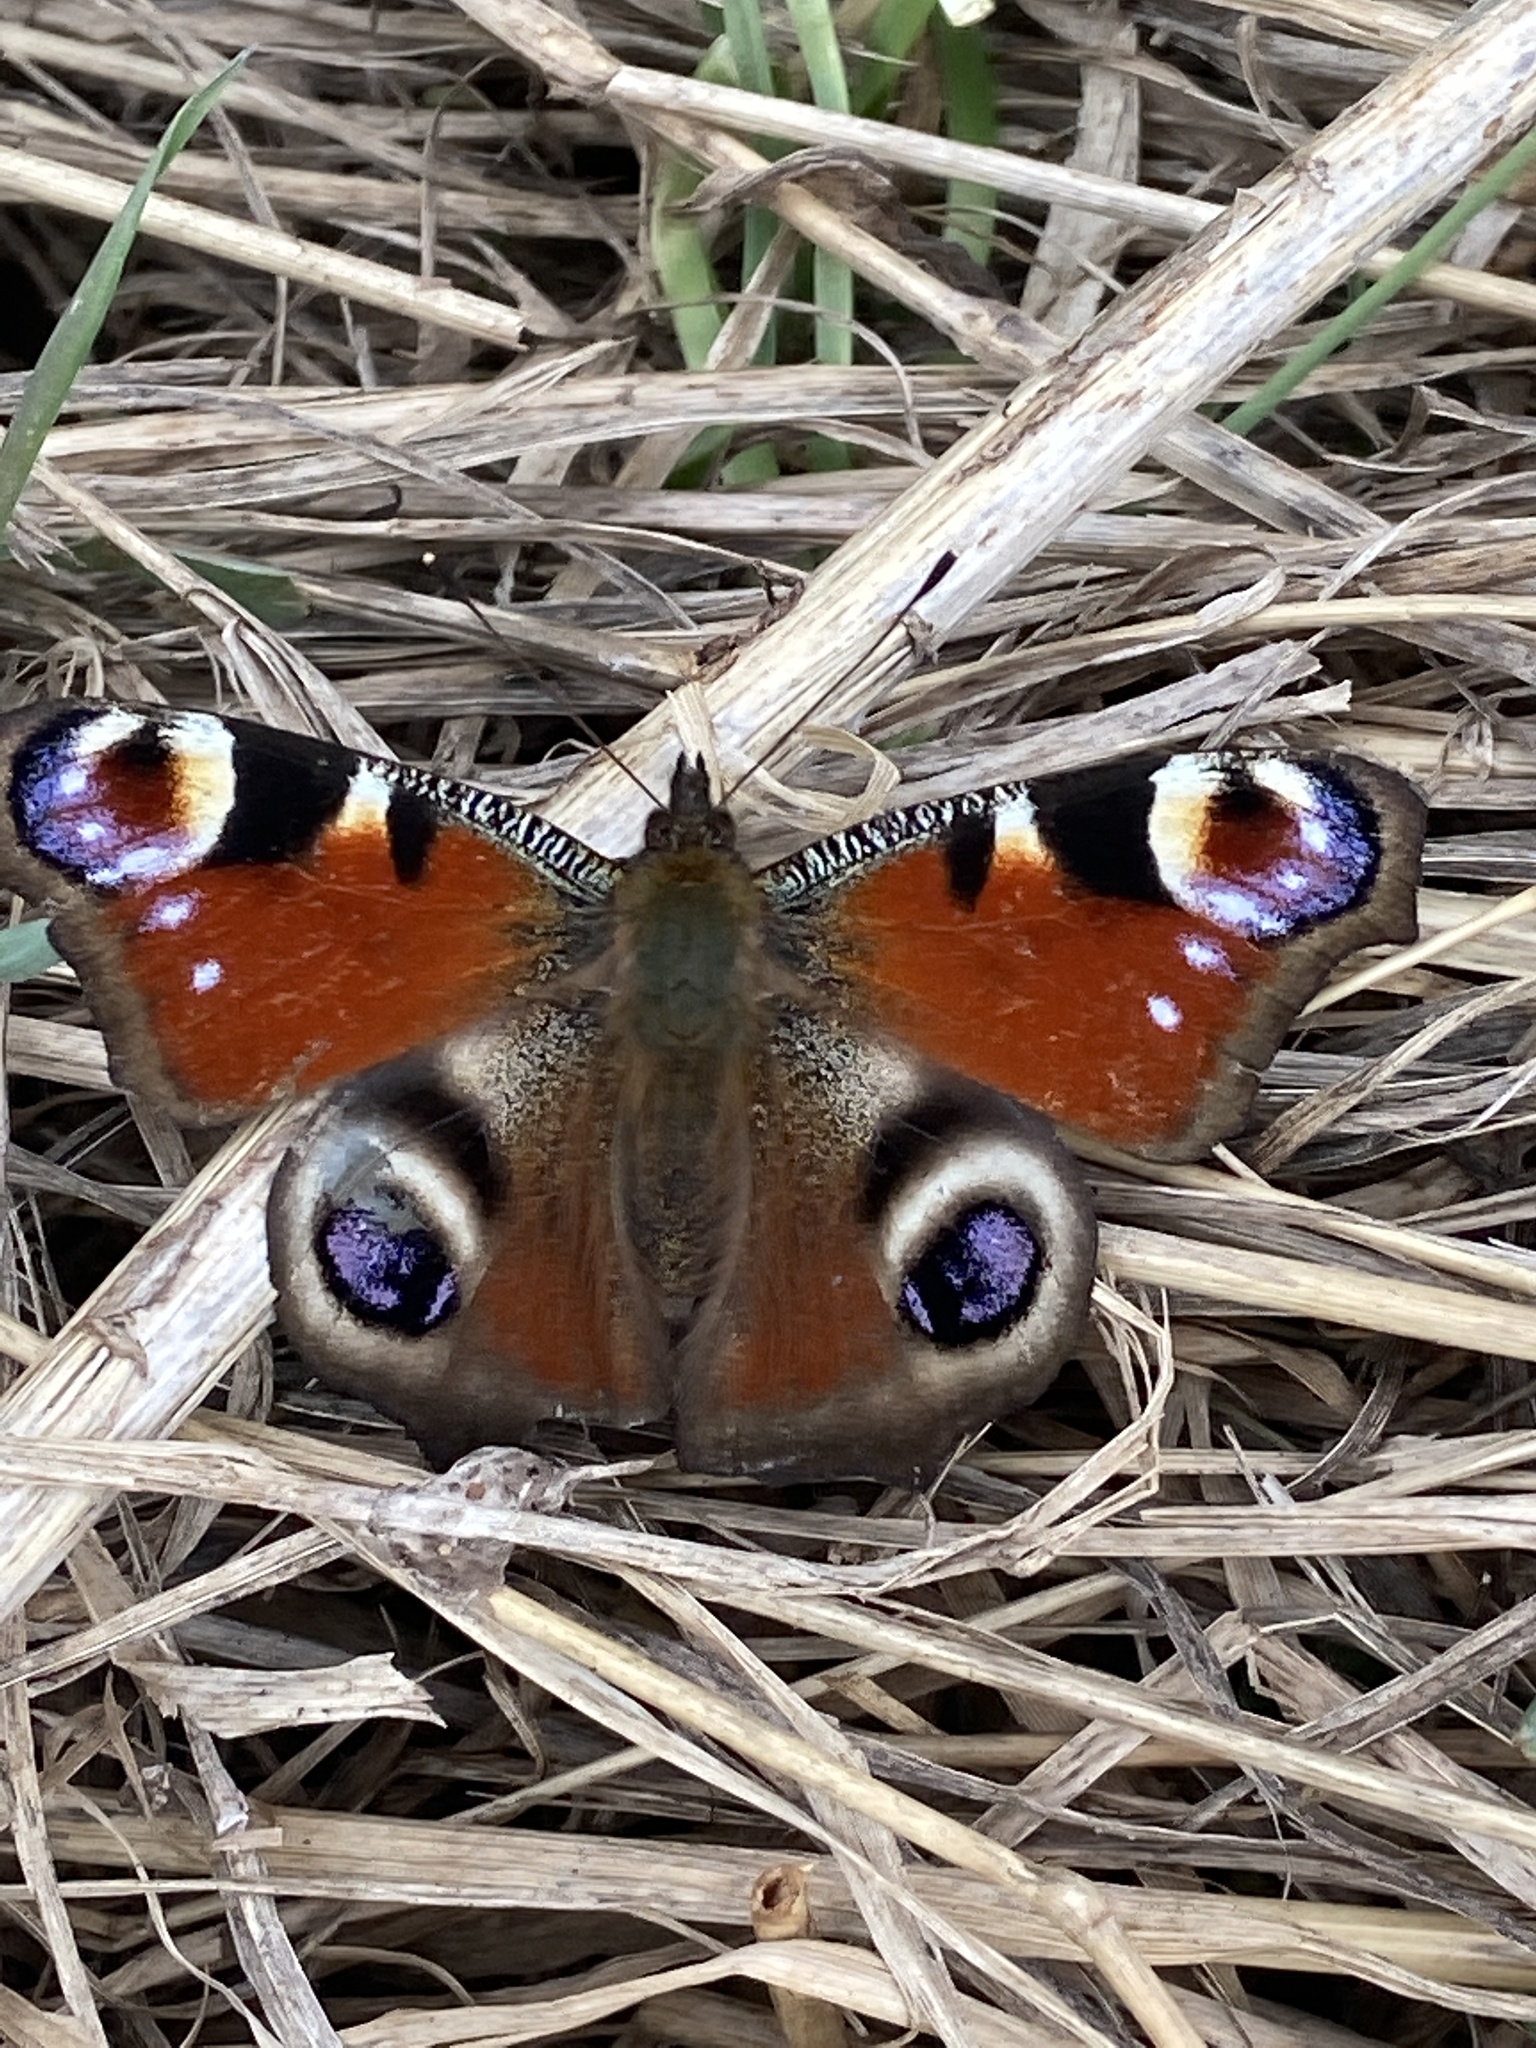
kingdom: Animalia
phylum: Arthropoda
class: Insecta
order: Lepidoptera
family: Nymphalidae
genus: Aglais
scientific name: Aglais io
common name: Peacock
